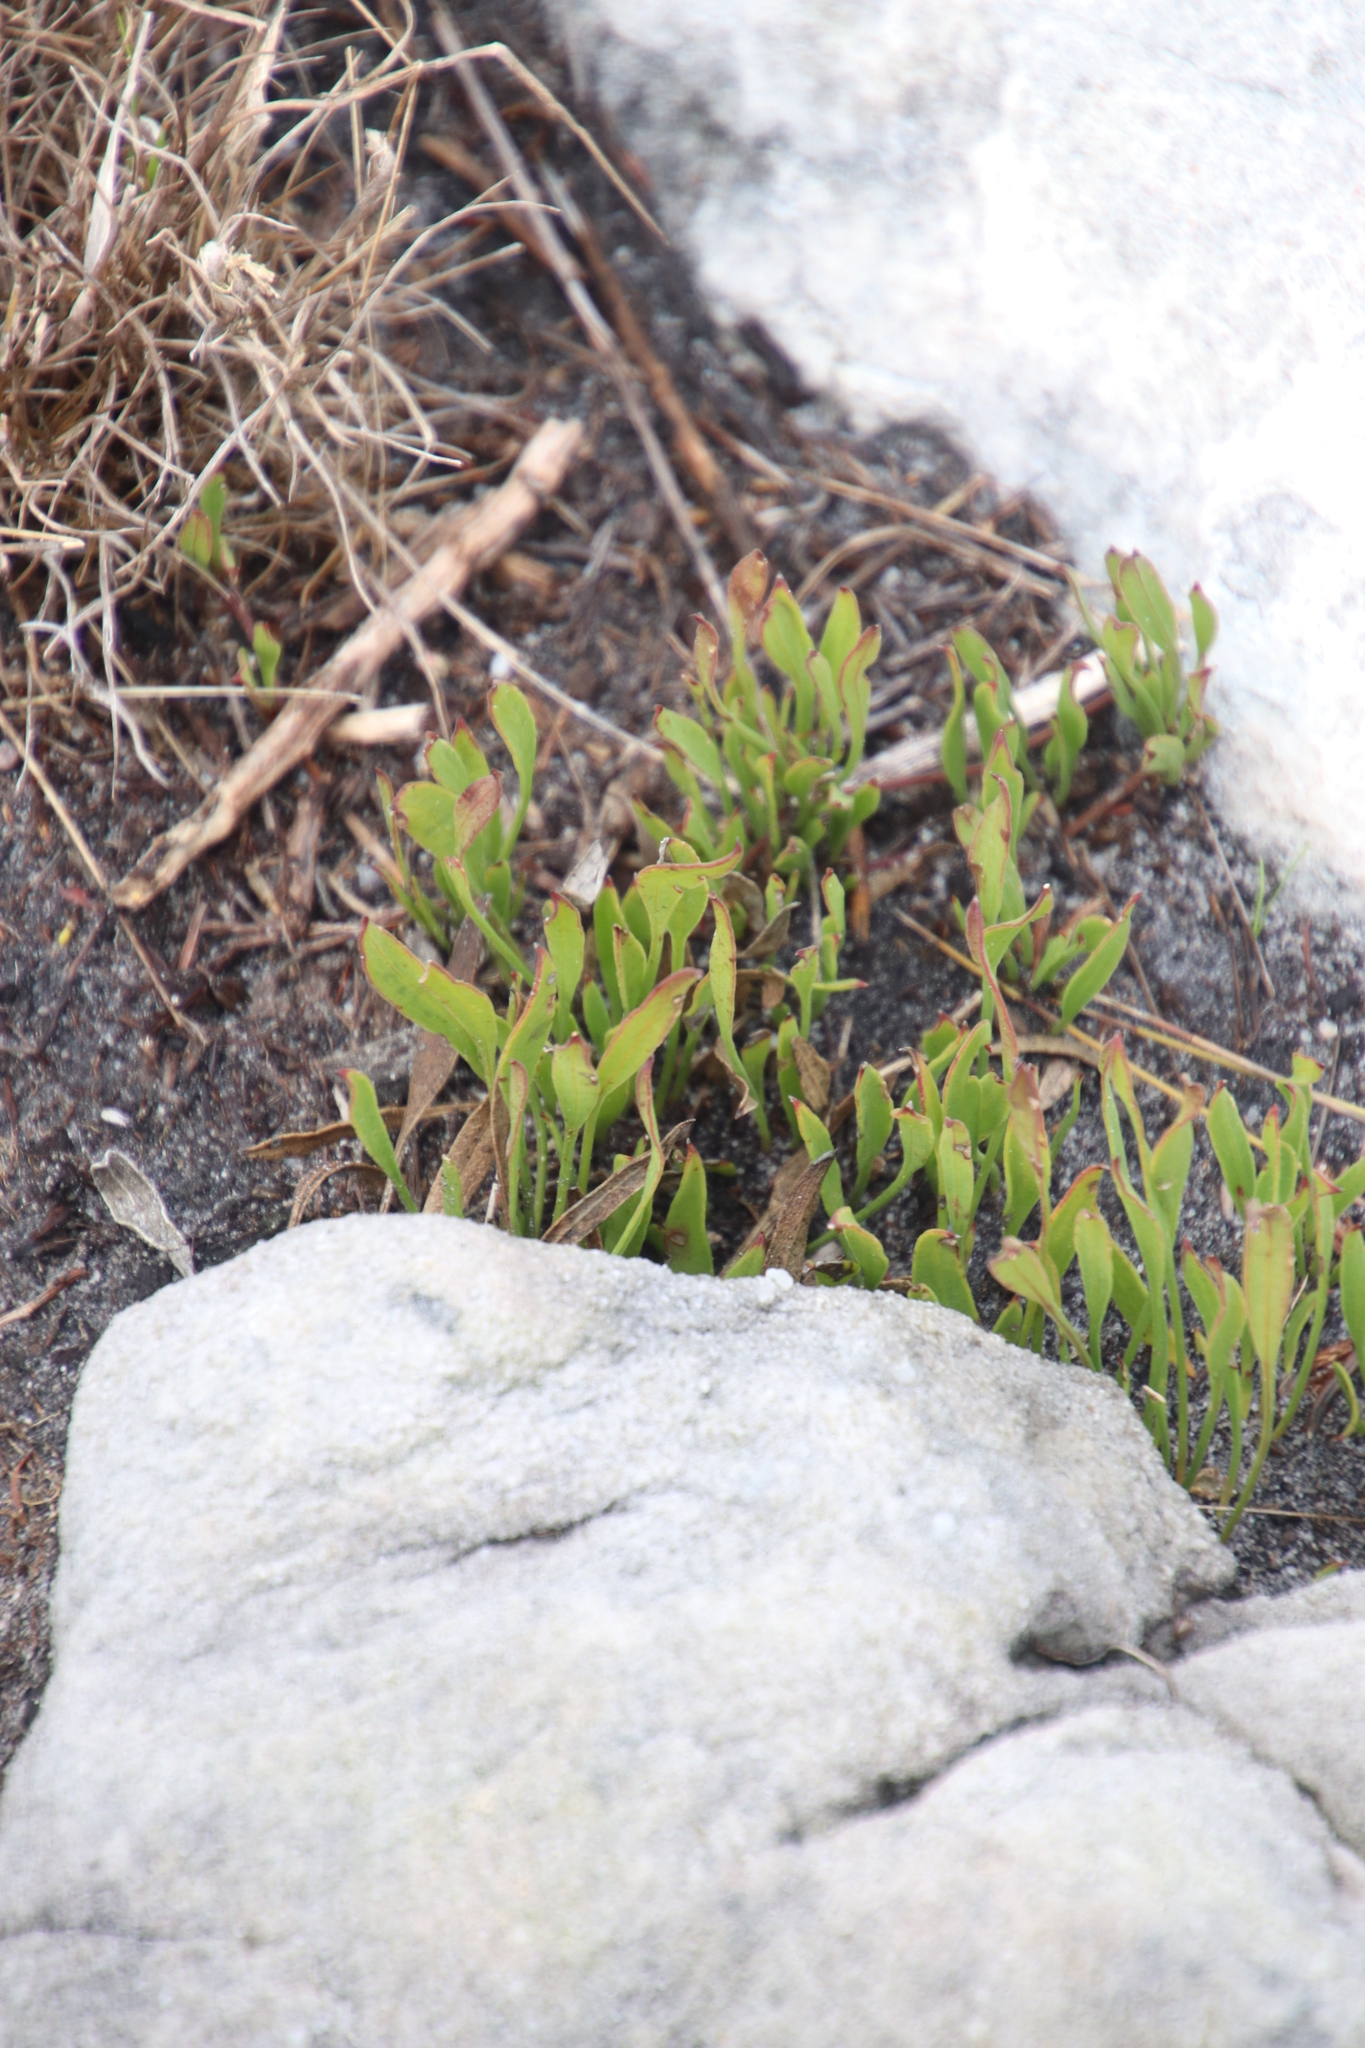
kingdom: Plantae
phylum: Tracheophyta
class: Magnoliopsida
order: Apiales
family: Apiaceae
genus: Centella
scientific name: Centella glabrata
